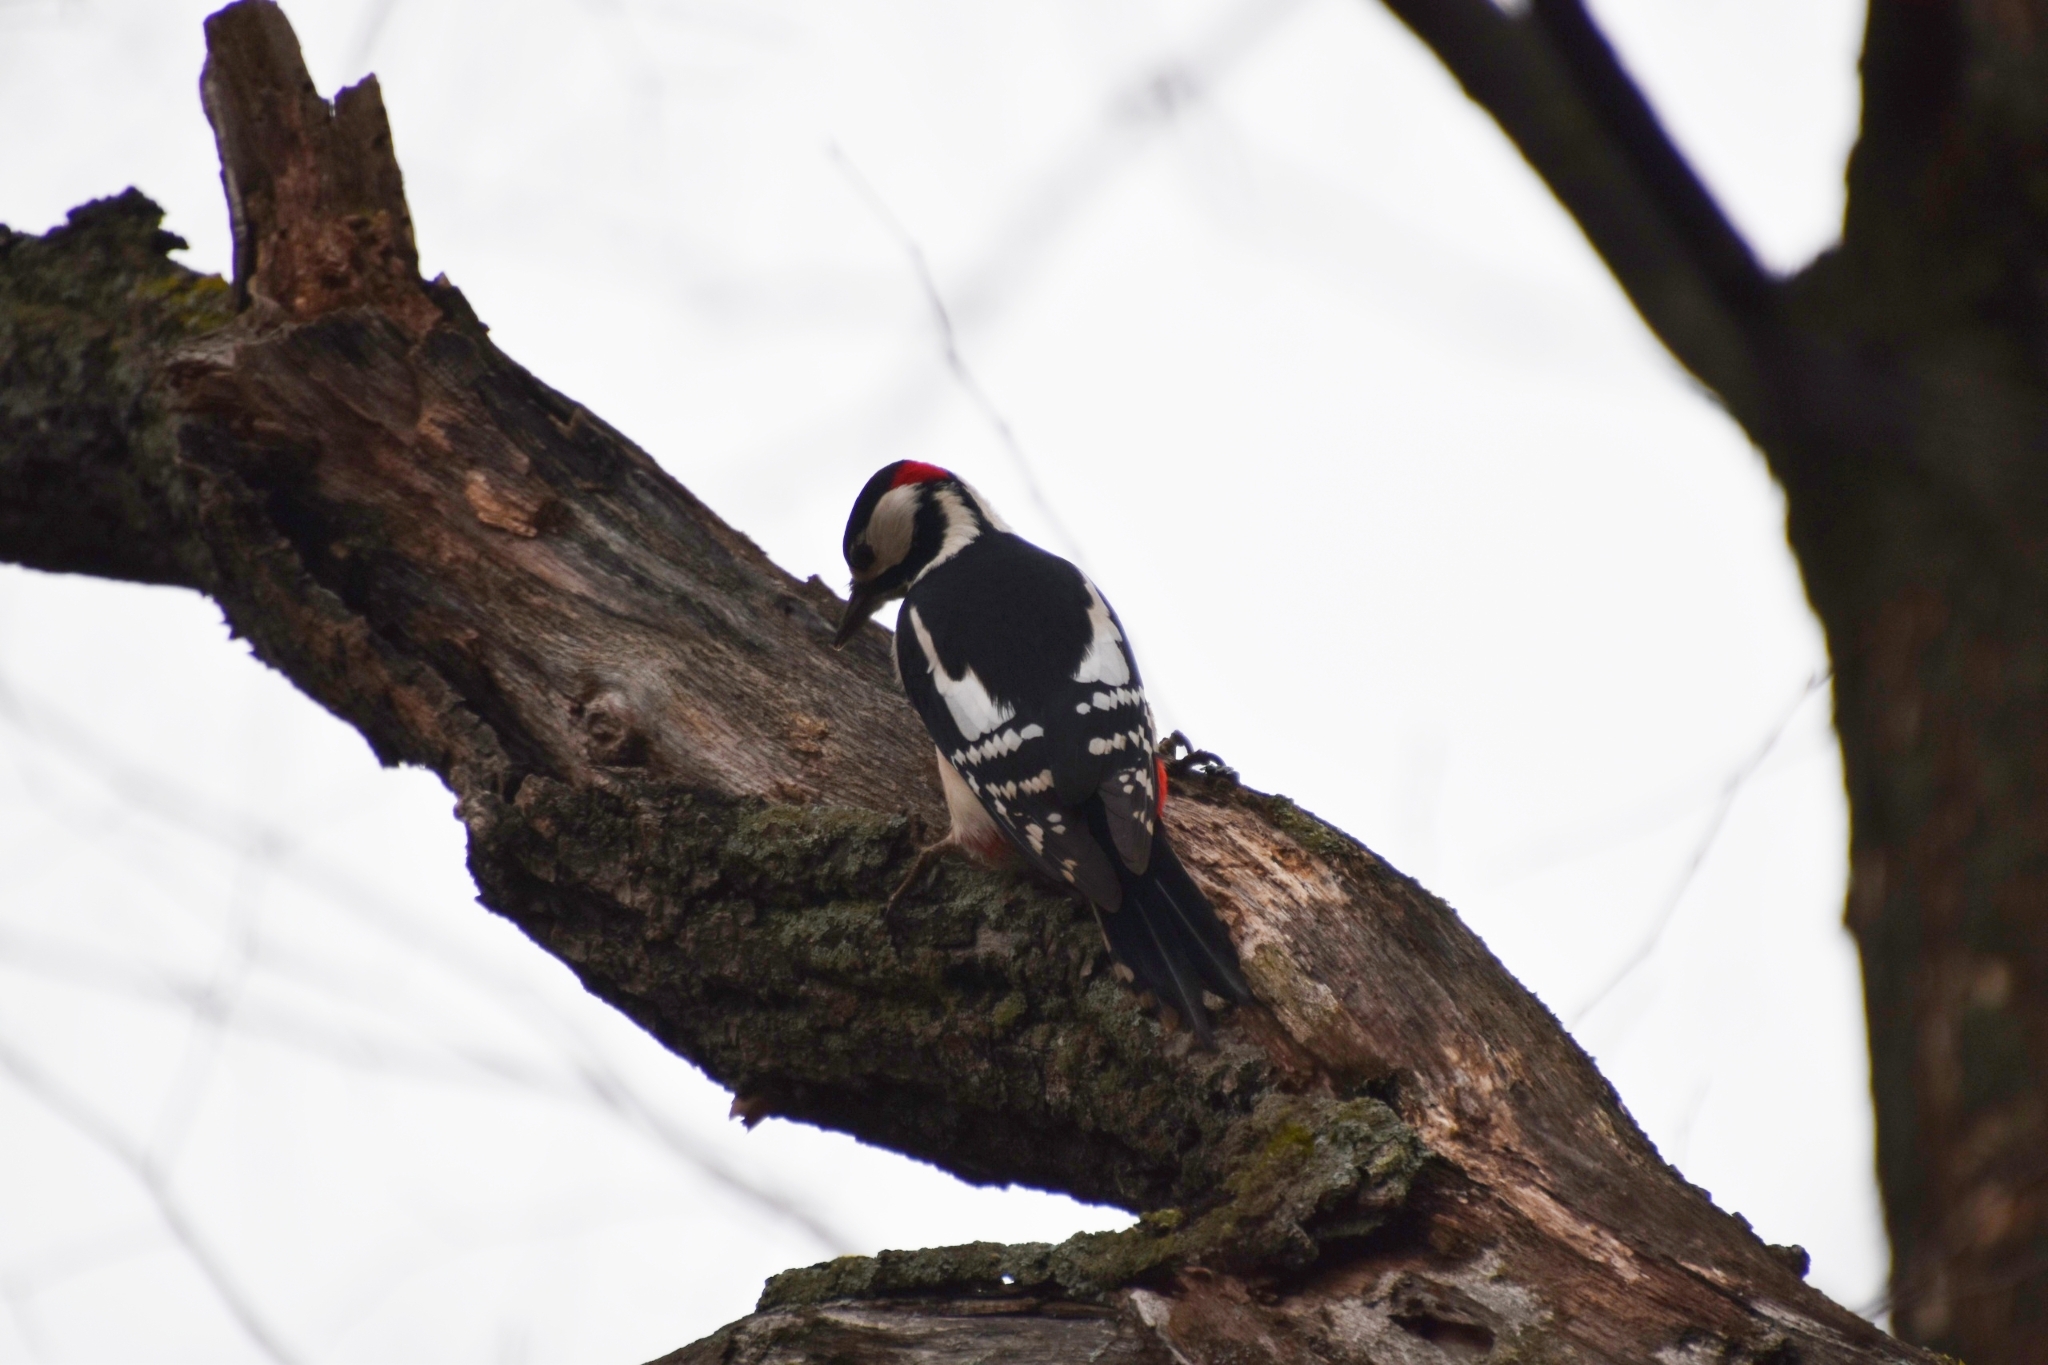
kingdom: Animalia
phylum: Chordata
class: Aves
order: Piciformes
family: Picidae
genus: Dendrocopos
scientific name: Dendrocopos major
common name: Great spotted woodpecker
